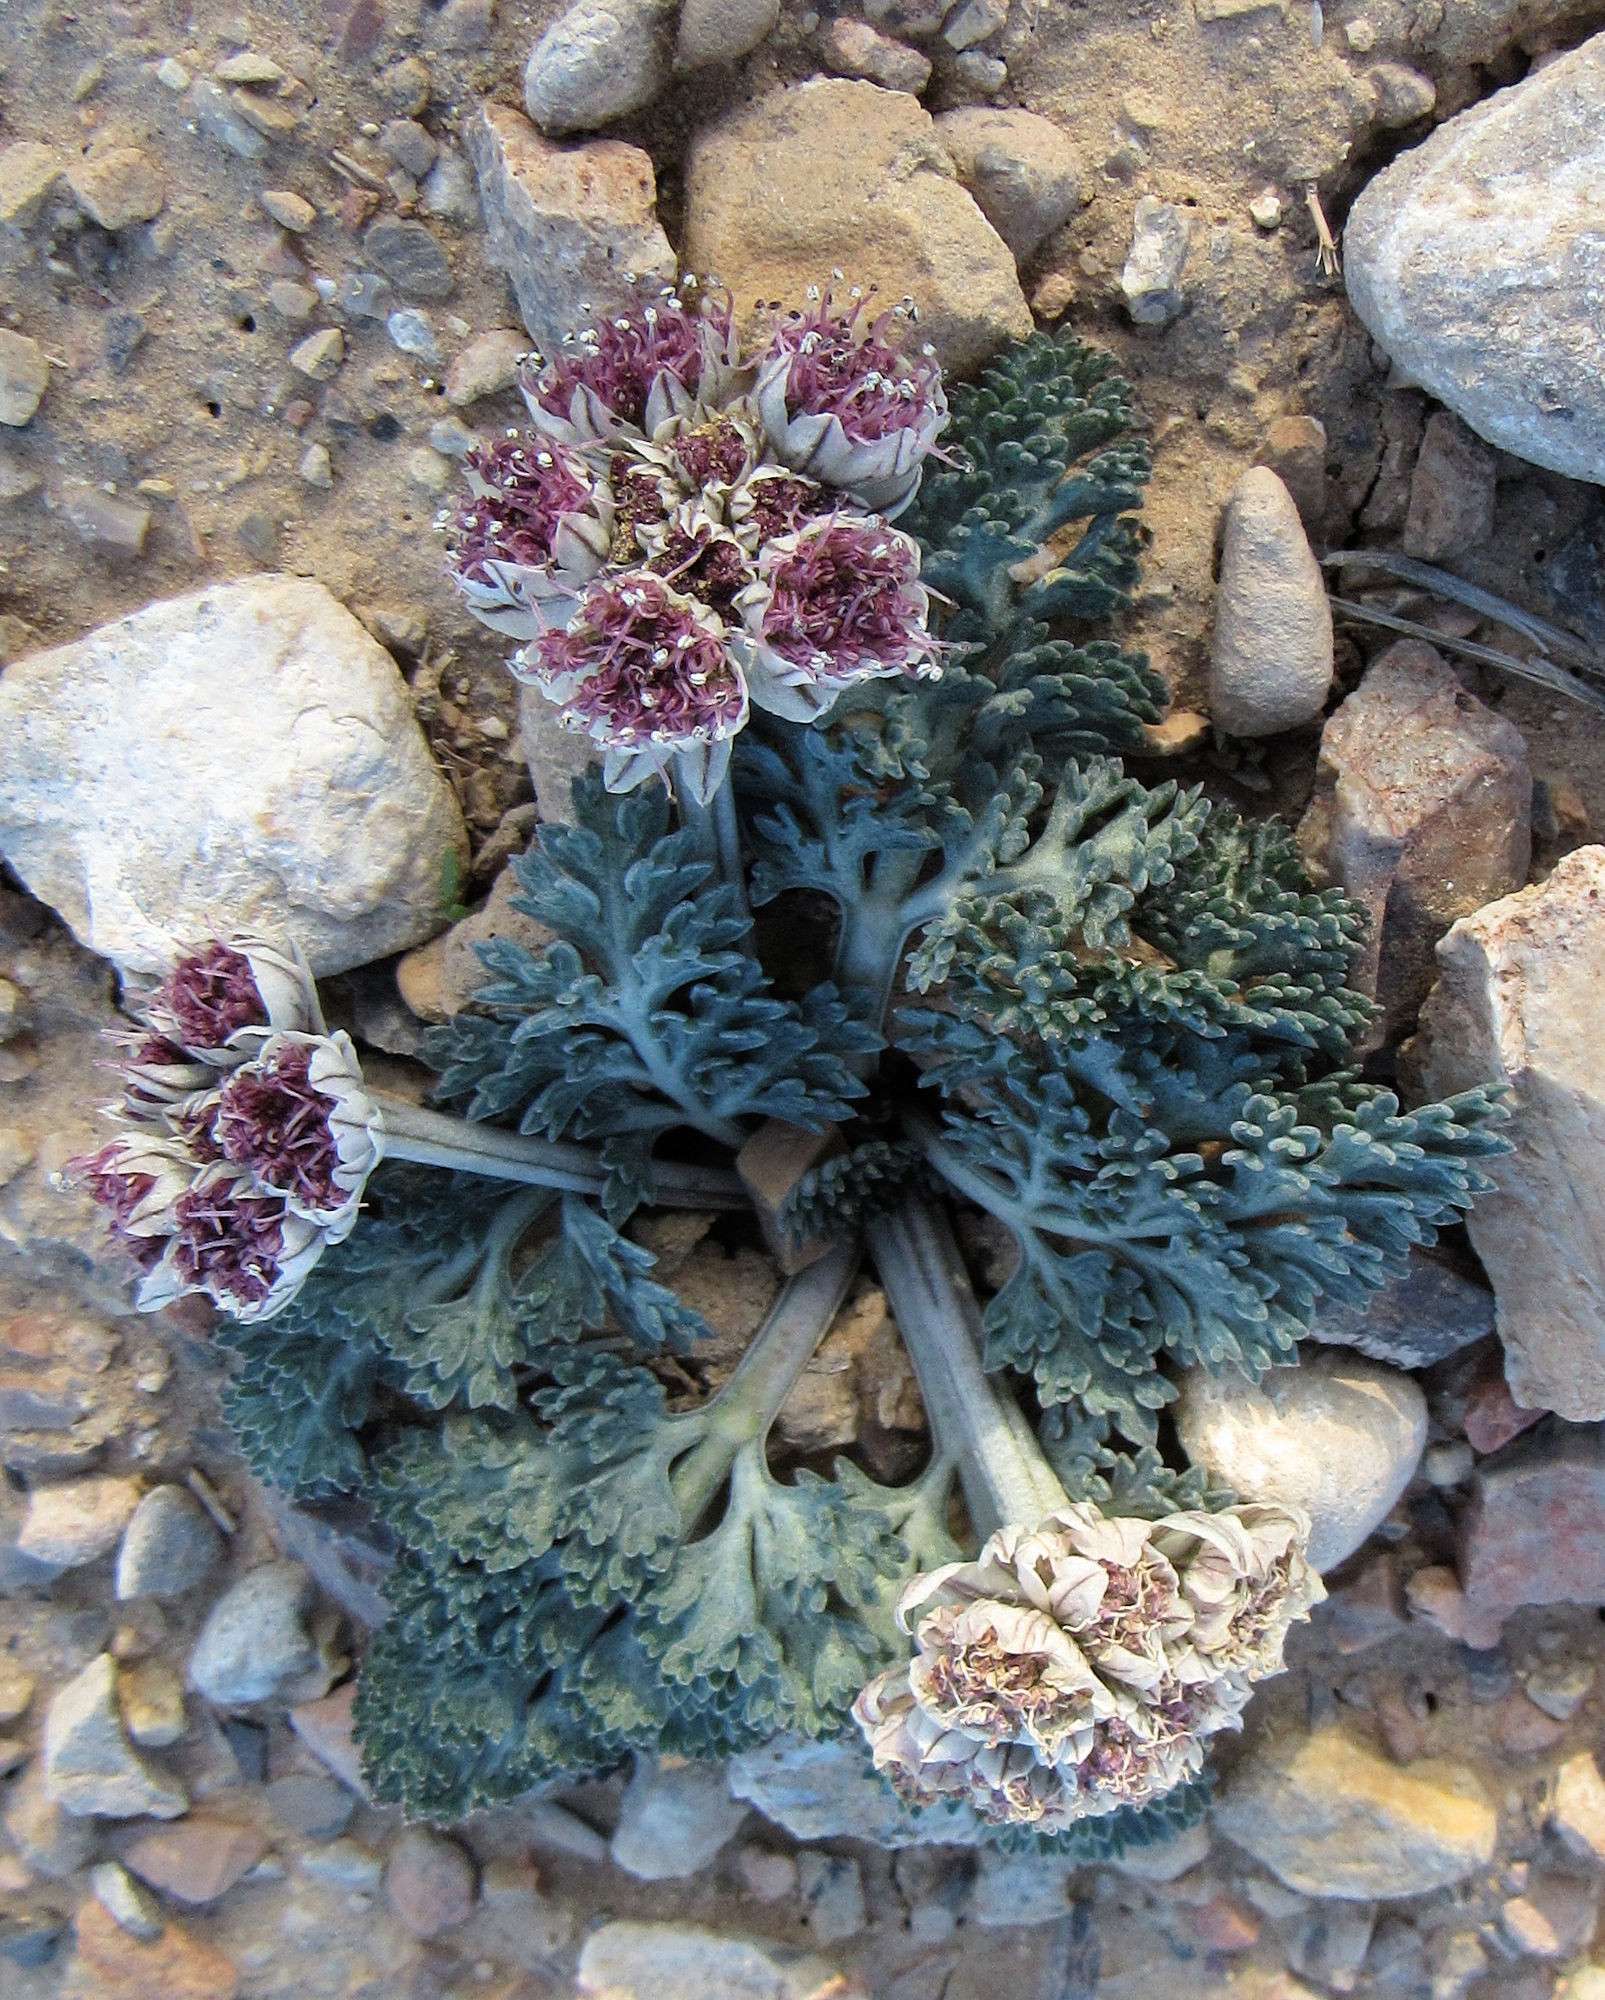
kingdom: Plantae
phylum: Tracheophyta
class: Magnoliopsida
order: Apiales
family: Apiaceae
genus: Vesper
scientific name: Vesper purpurascens
